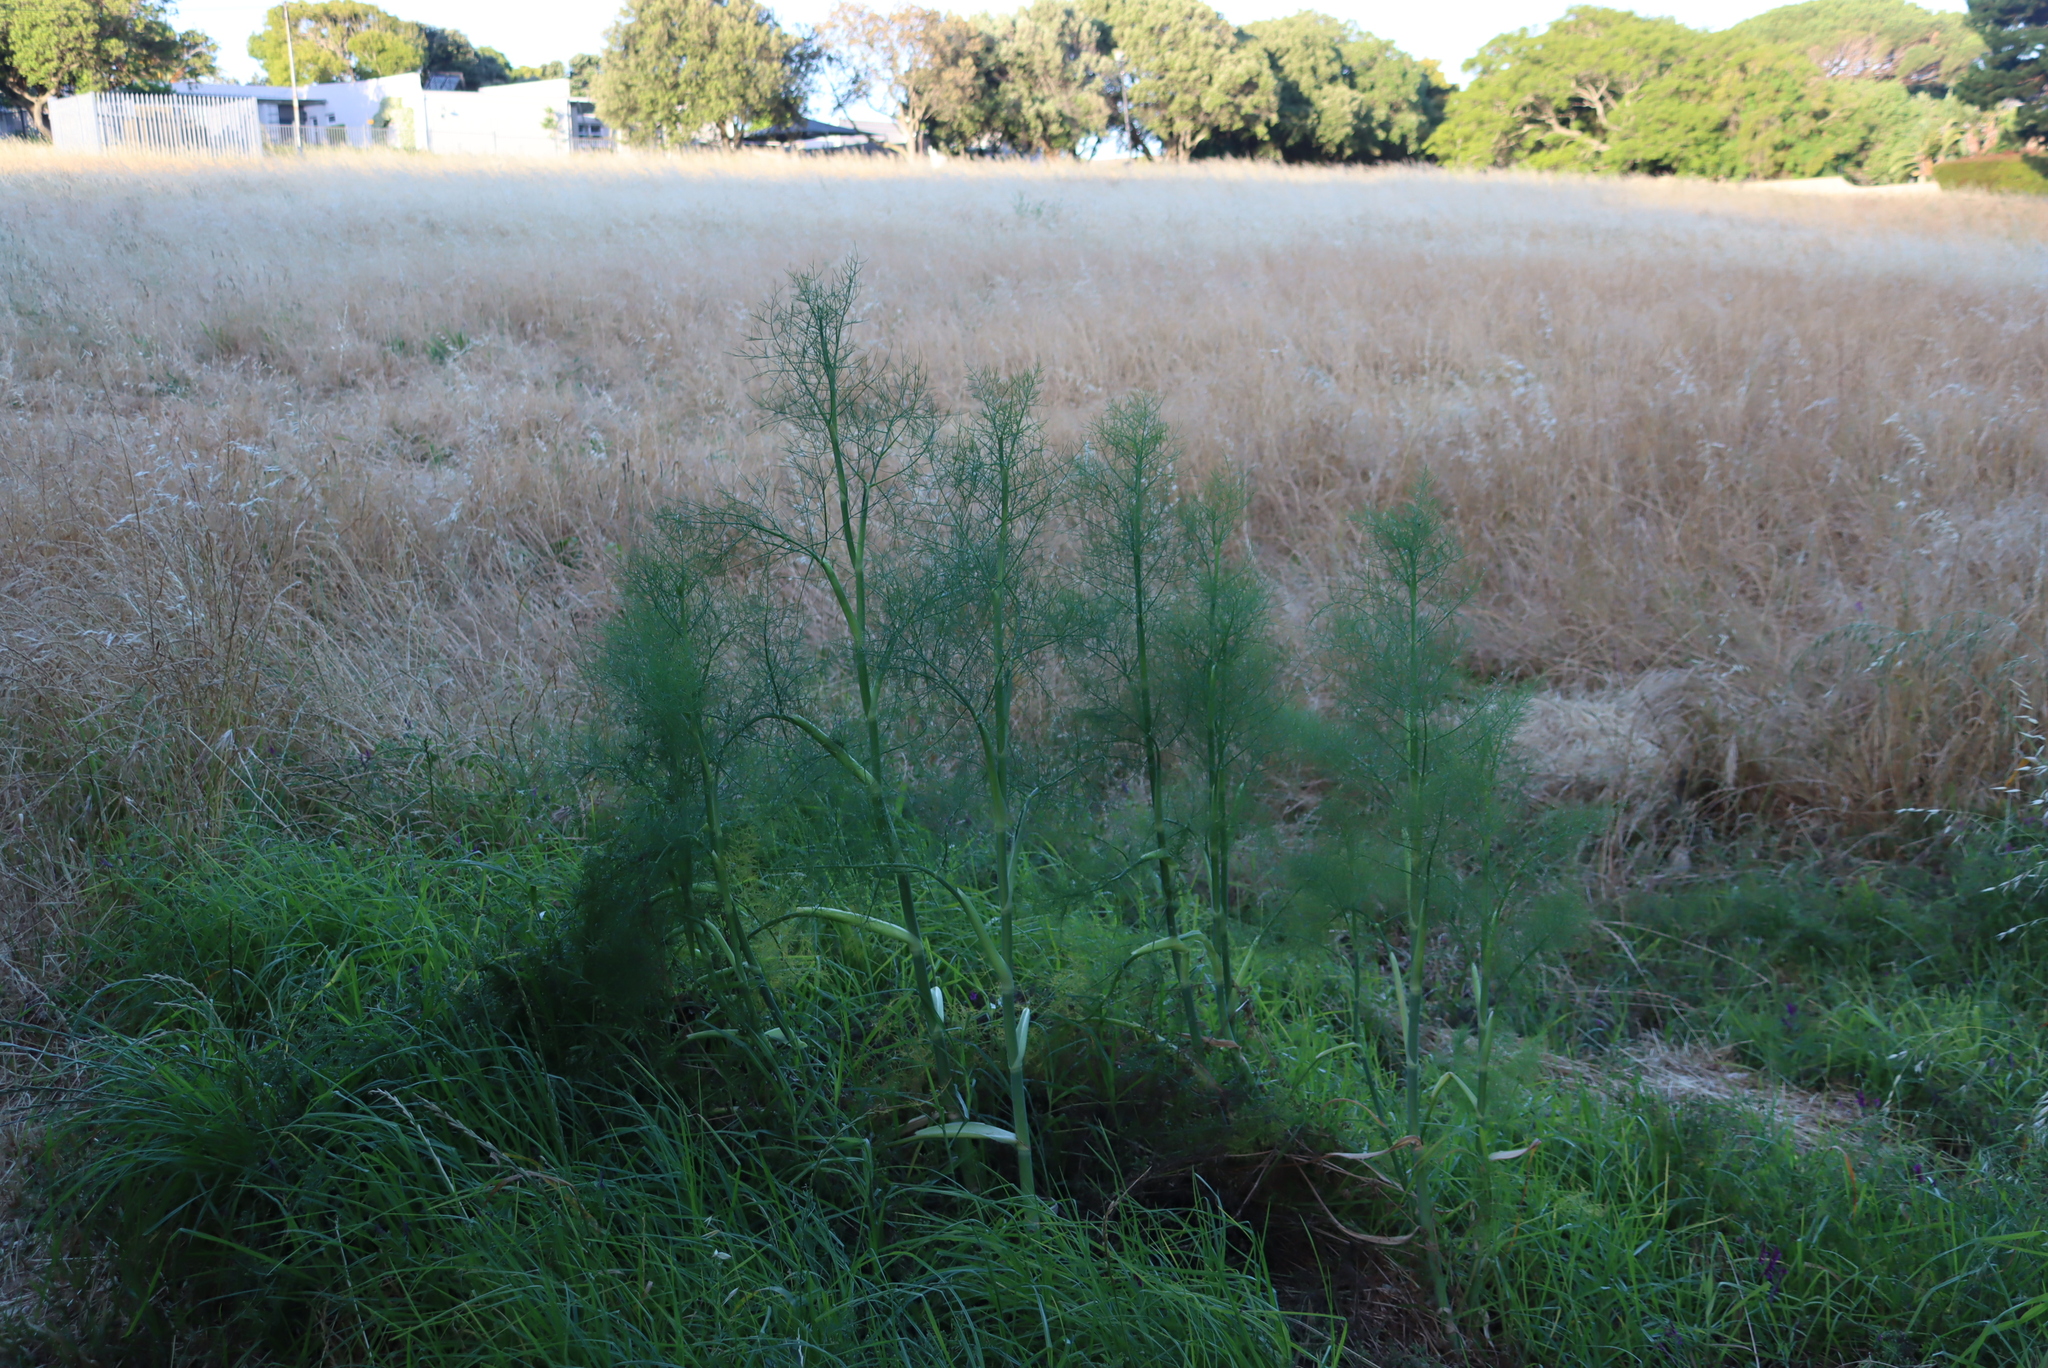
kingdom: Plantae
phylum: Tracheophyta
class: Magnoliopsida
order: Apiales
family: Apiaceae
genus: Foeniculum
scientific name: Foeniculum vulgare
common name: Fennel
